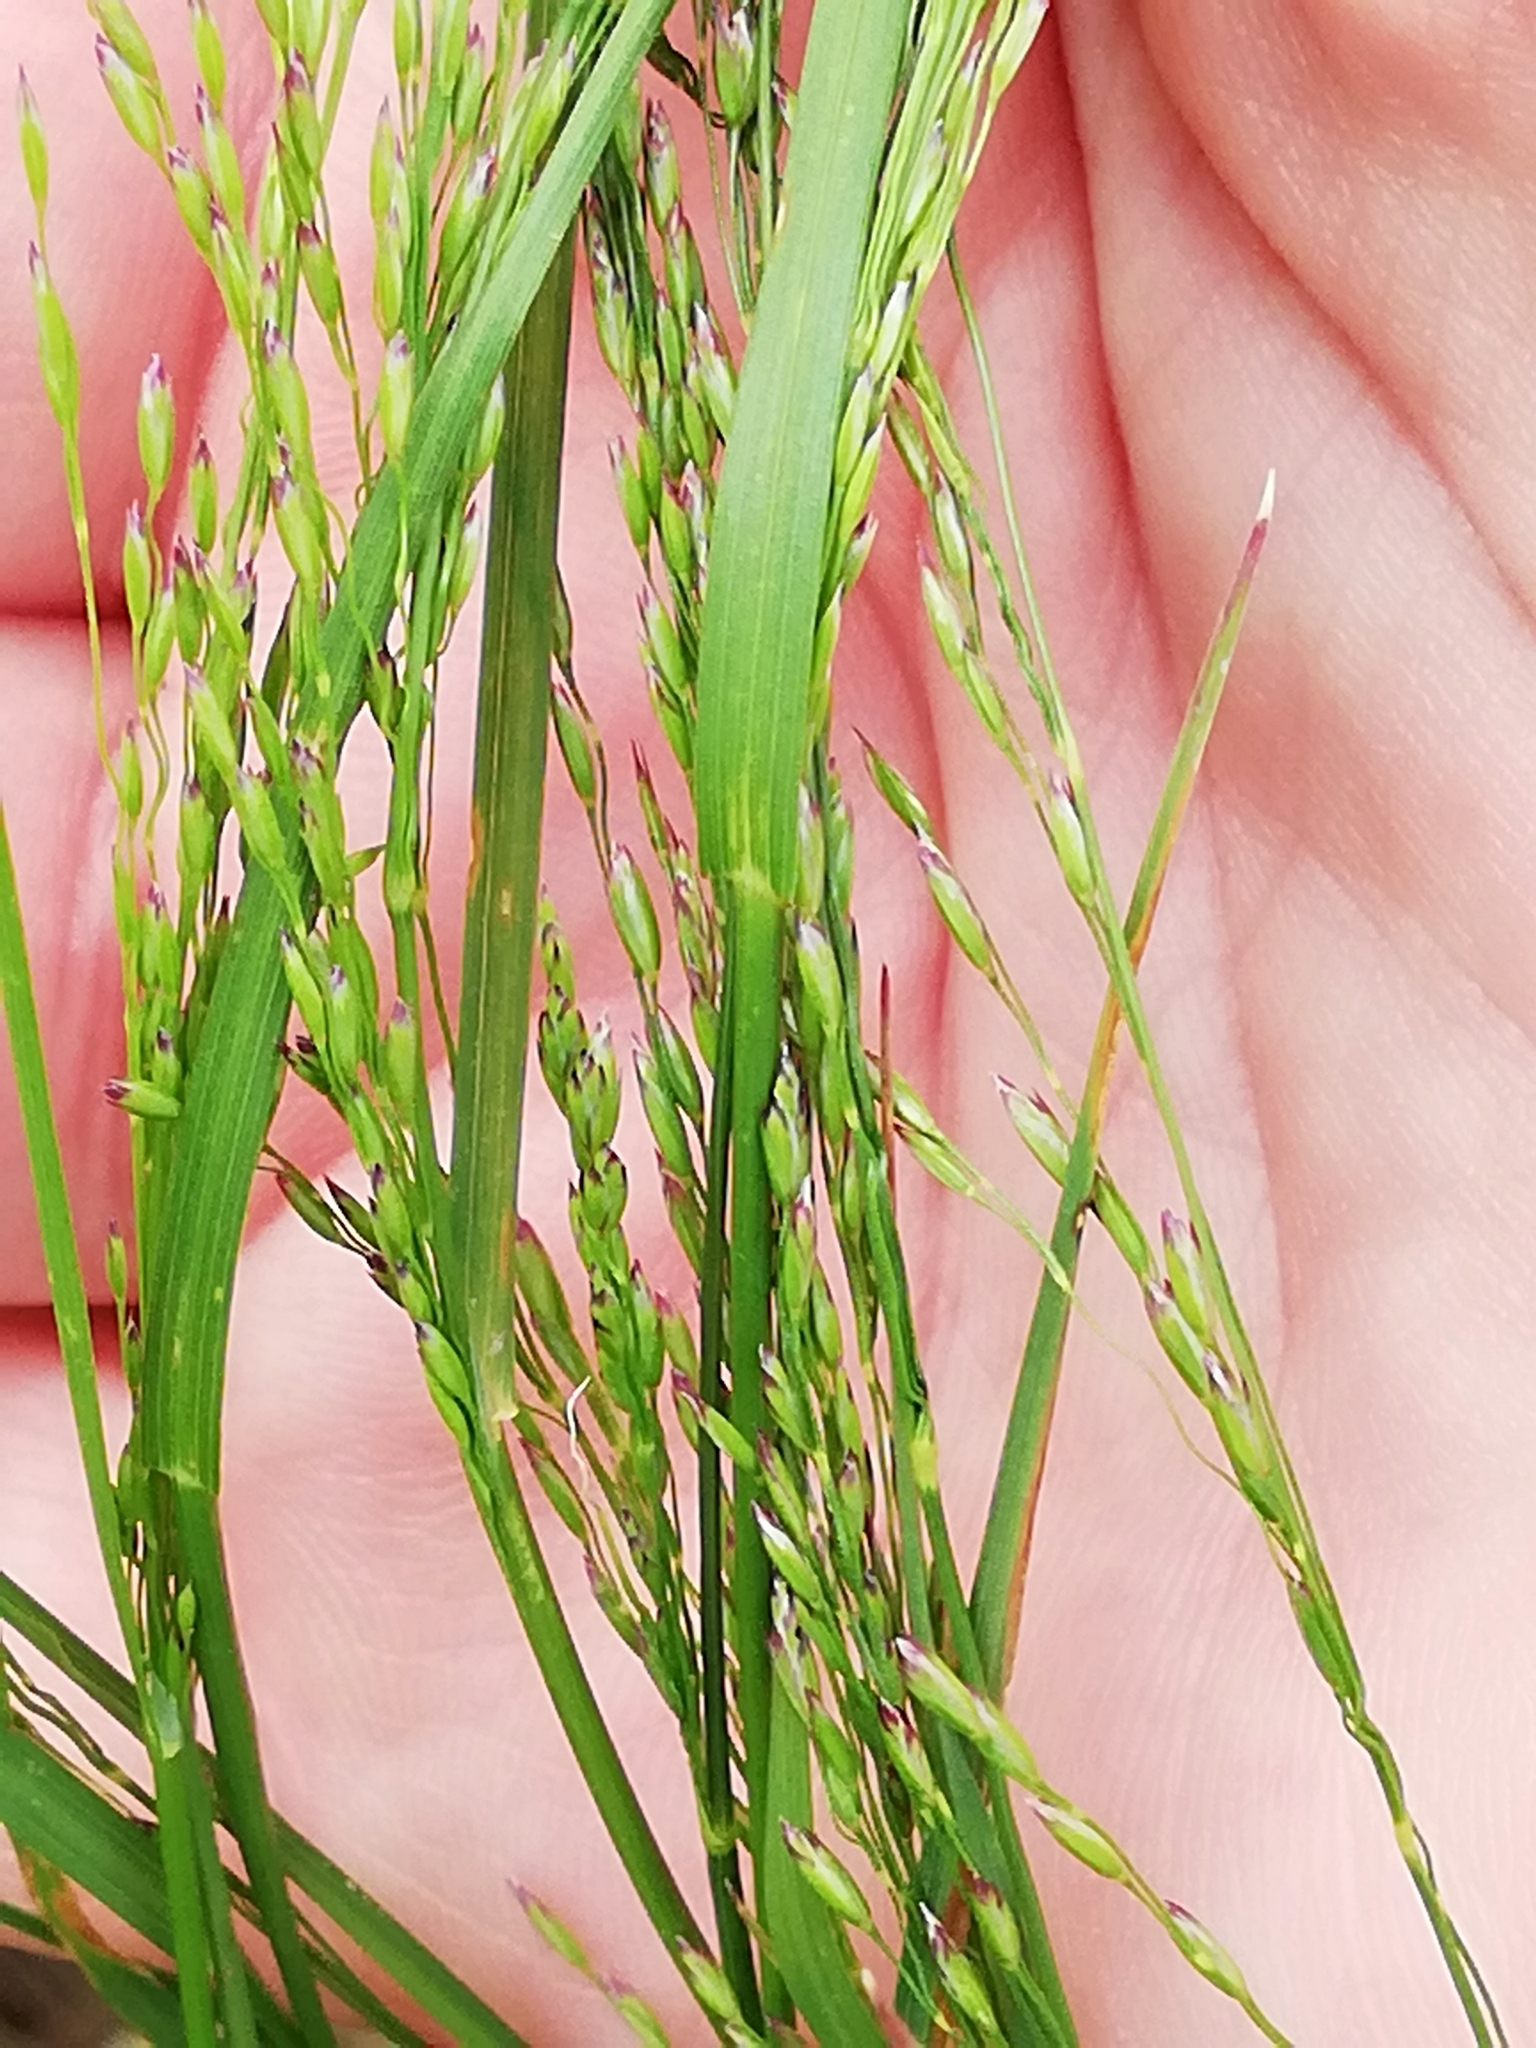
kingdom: Plantae
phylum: Tracheophyta
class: Liliopsida
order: Poales
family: Poaceae
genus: Poa
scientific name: Poa palustris
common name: Swamp meadow-grass
